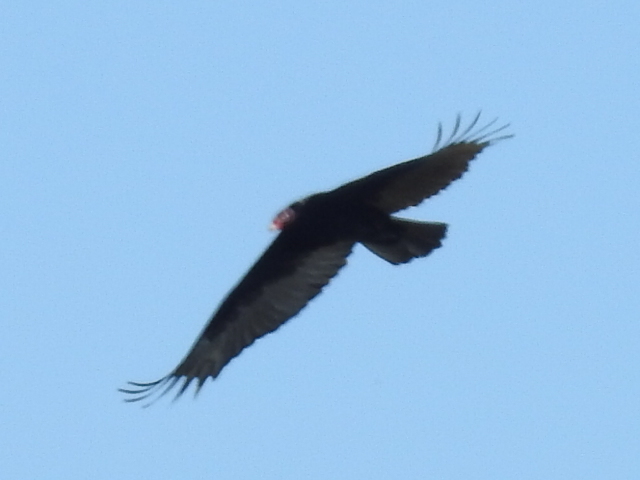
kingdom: Animalia
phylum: Chordata
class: Aves
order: Accipitriformes
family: Cathartidae
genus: Cathartes
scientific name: Cathartes aura
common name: Turkey vulture
